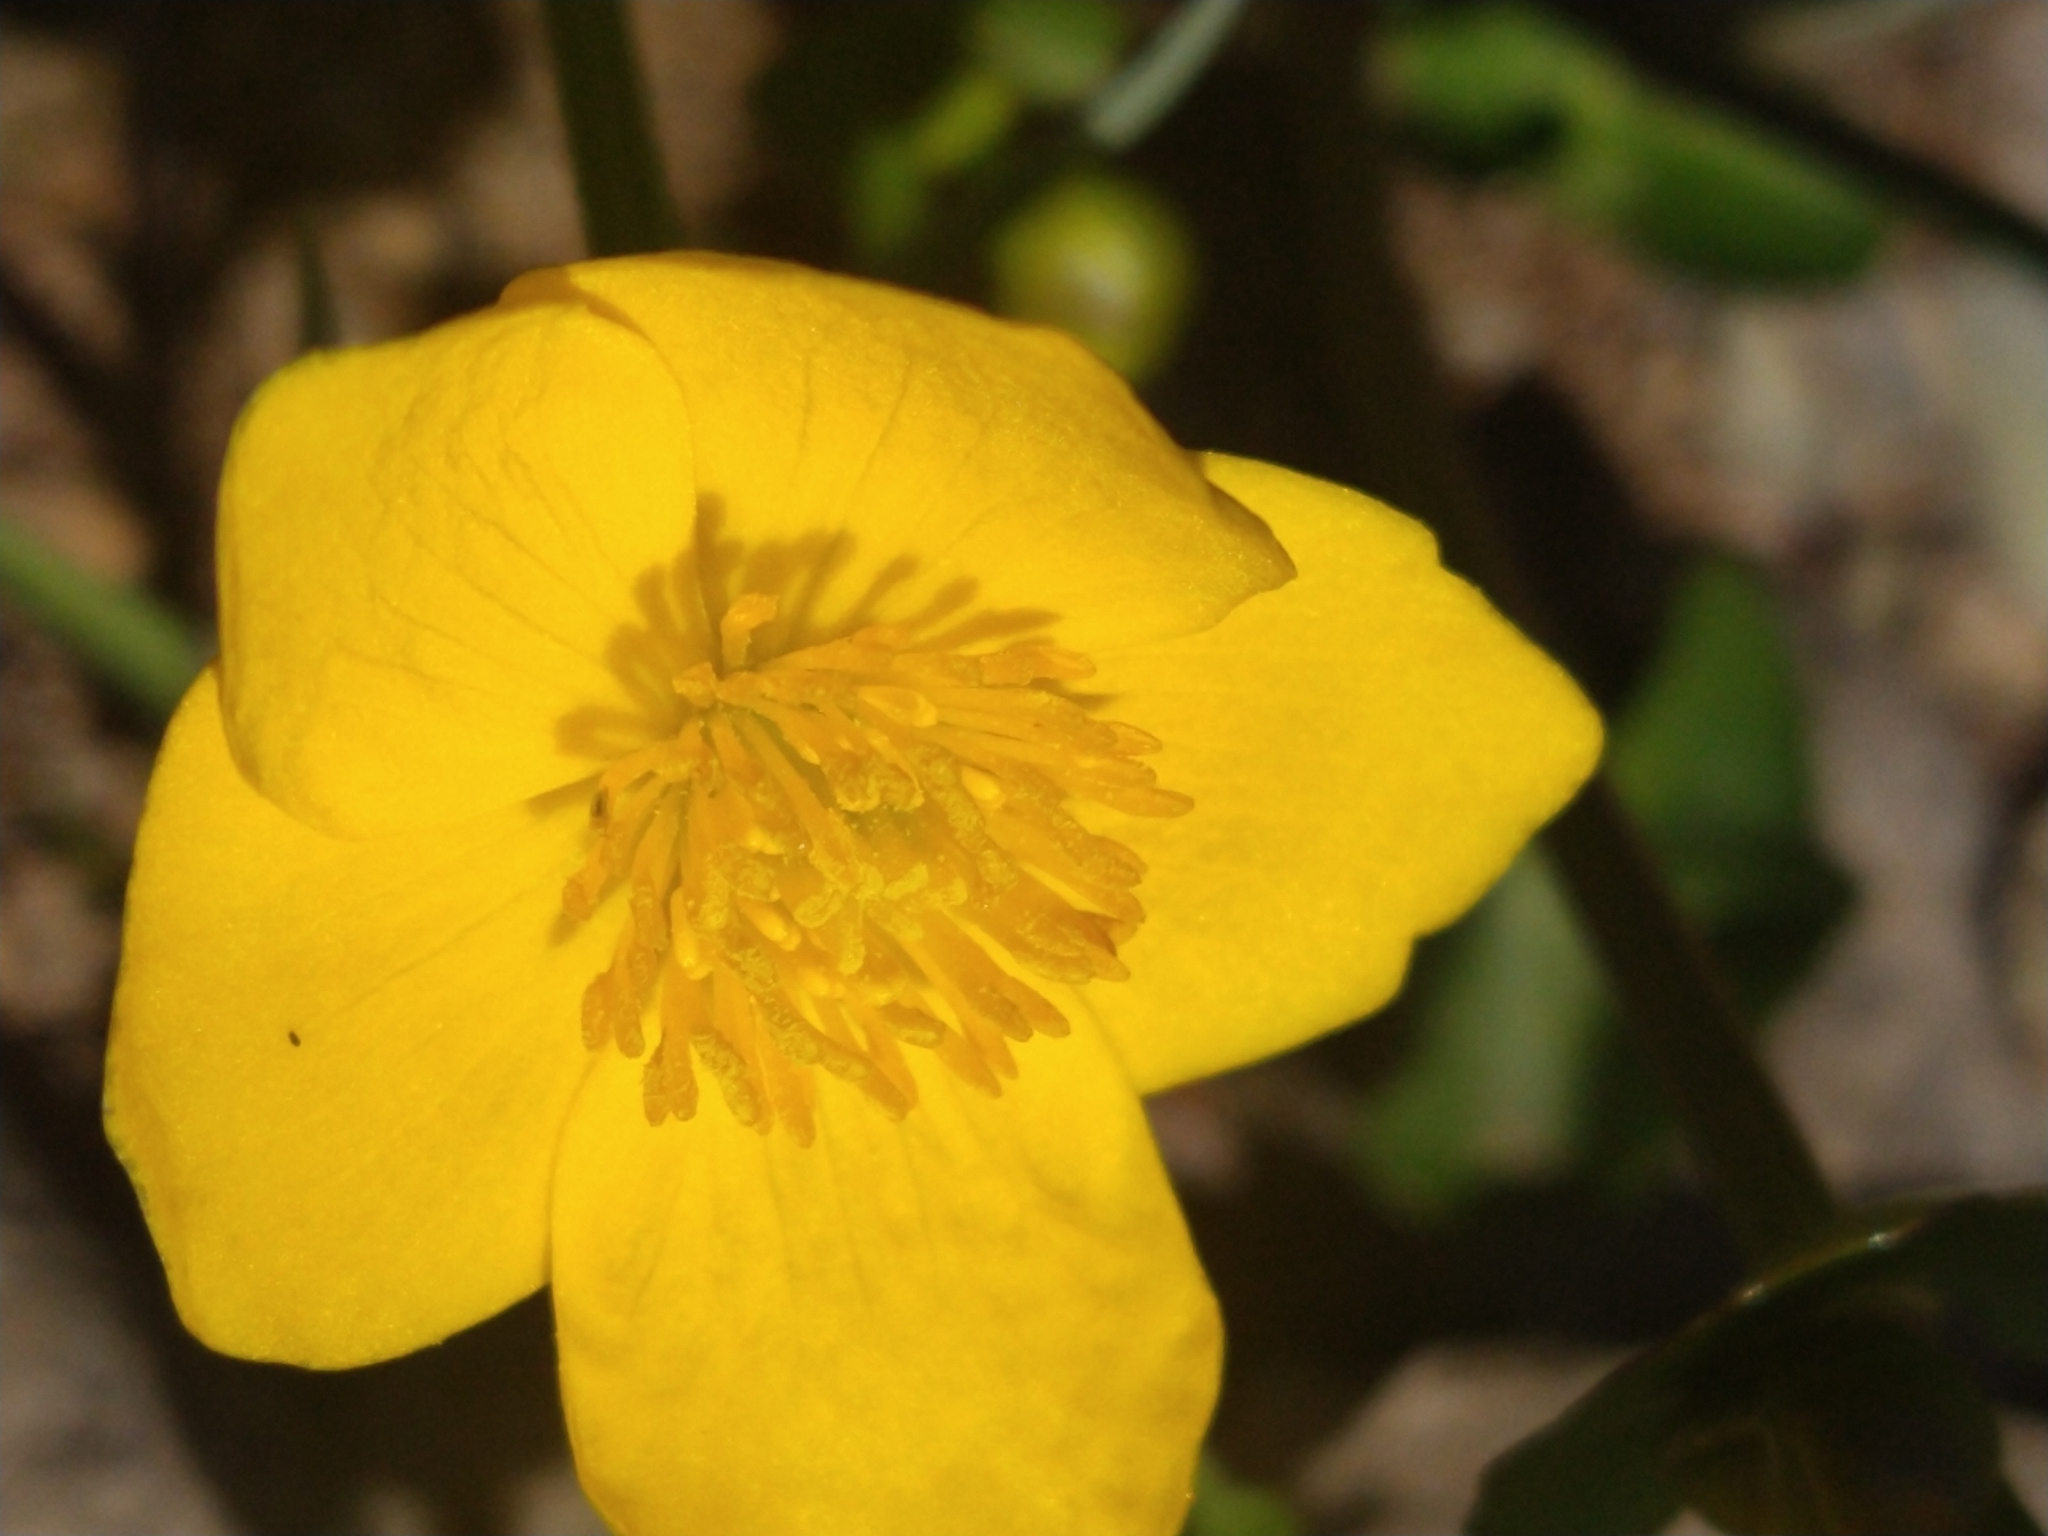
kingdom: Plantae
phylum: Tracheophyta
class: Magnoliopsida
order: Ranunculales
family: Ranunculaceae
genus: Caltha
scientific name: Caltha palustris
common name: Marsh marigold
